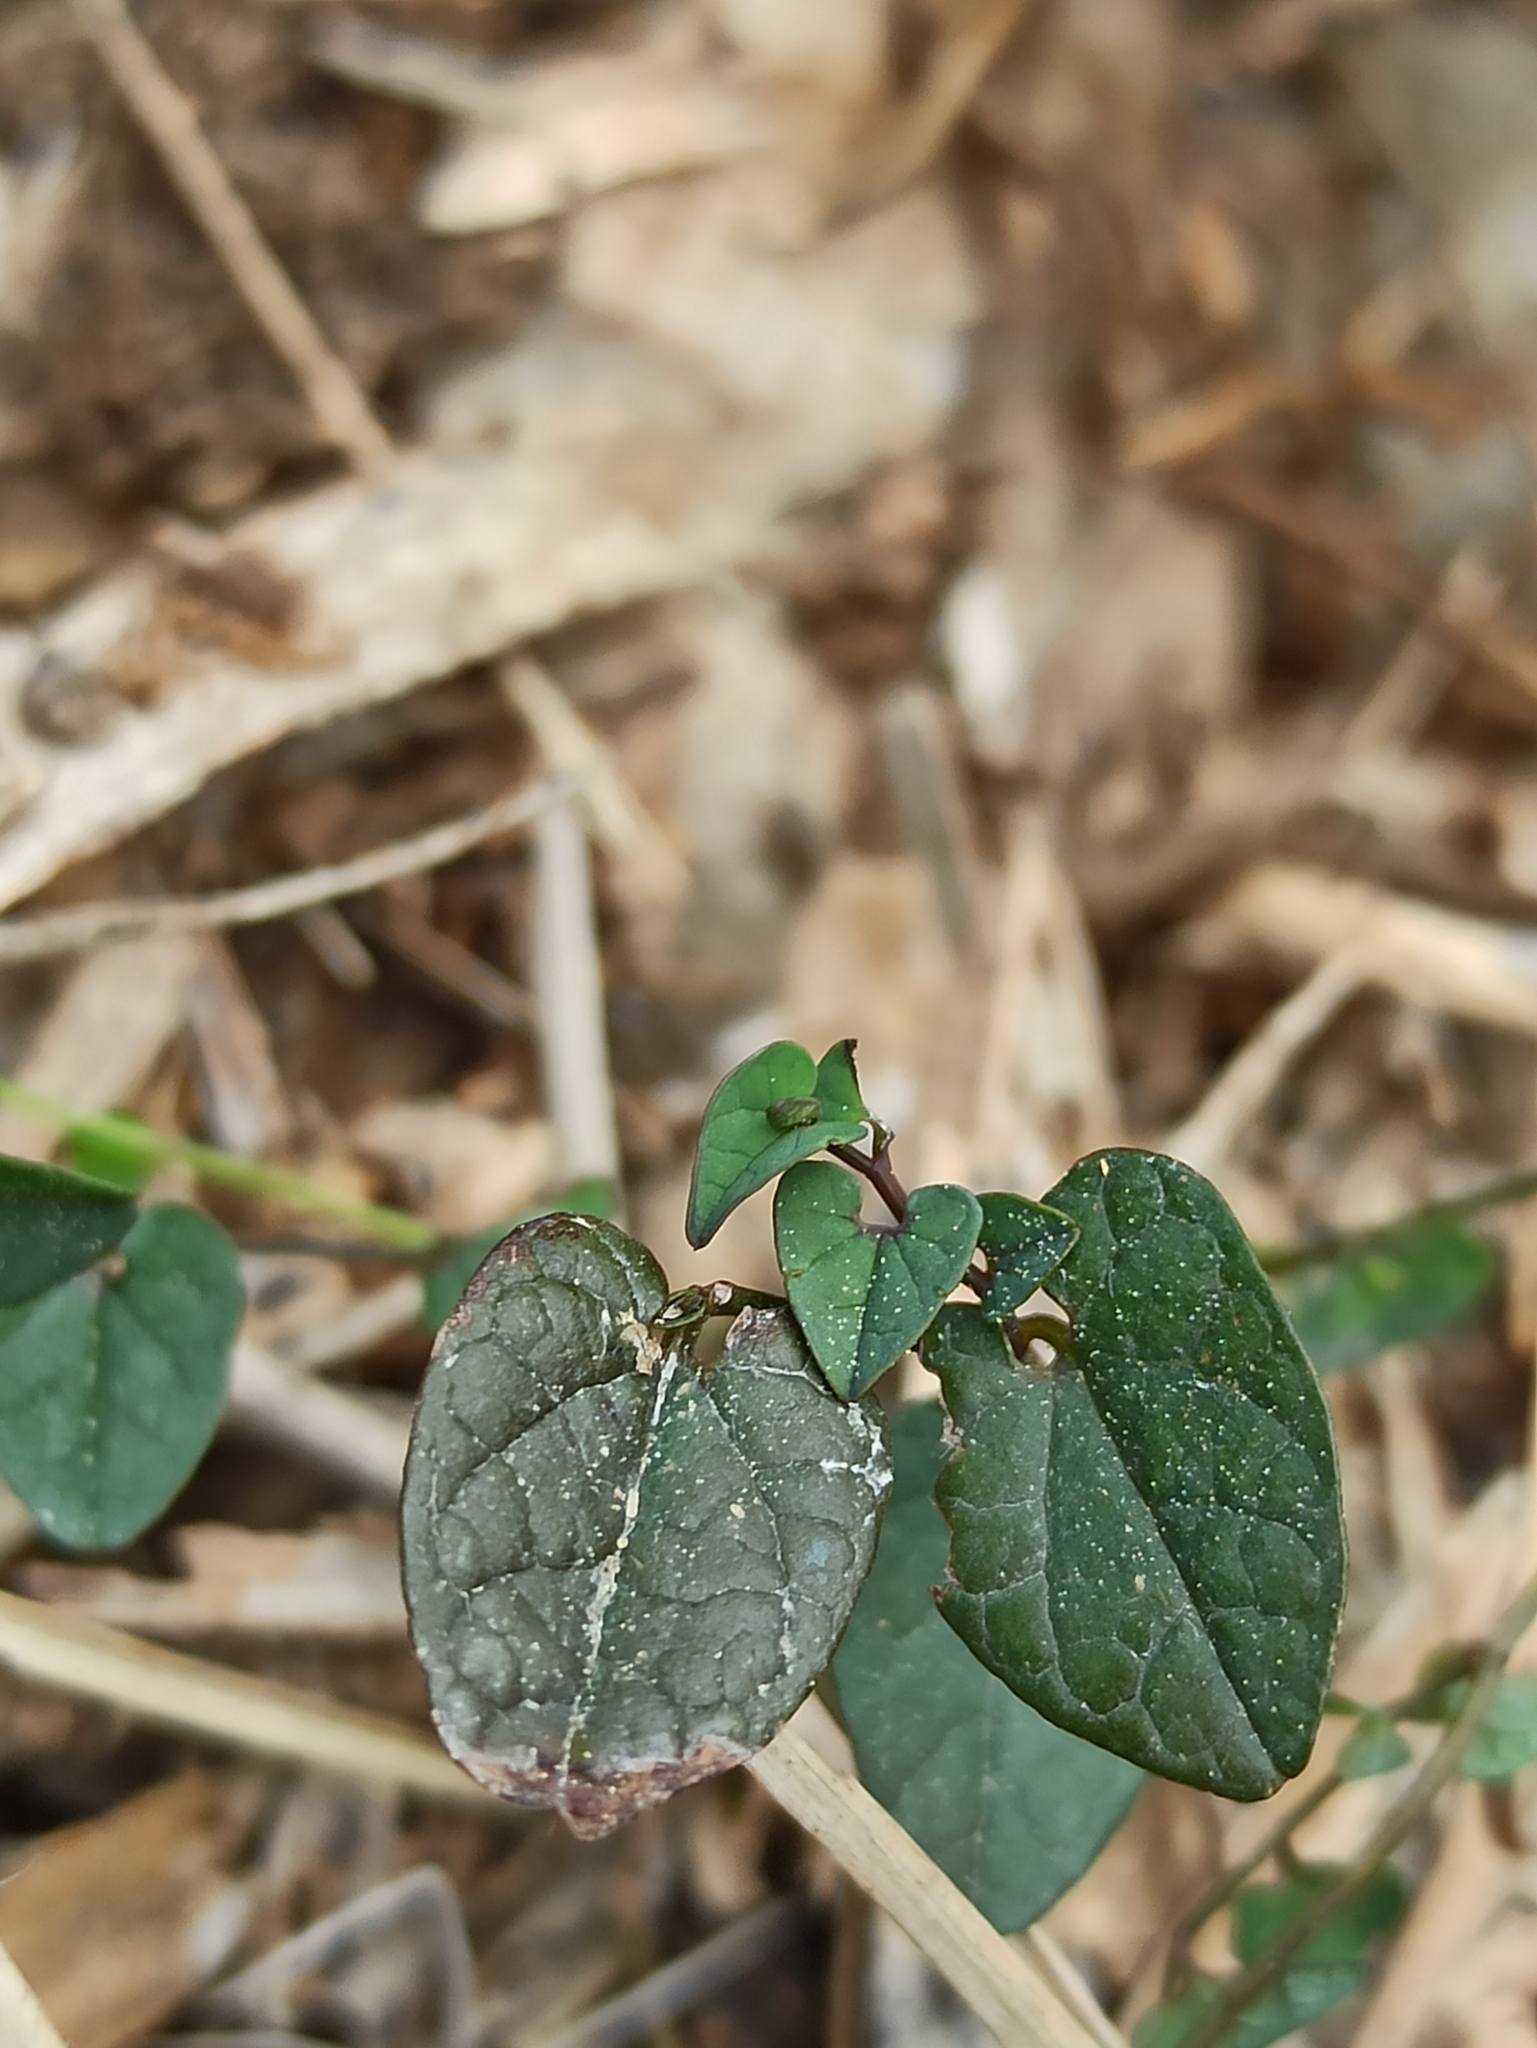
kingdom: Plantae
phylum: Tracheophyta
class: Magnoliopsida
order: Piperales
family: Aristolochiaceae
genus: Aristolochia
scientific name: Aristolochia bianorii
